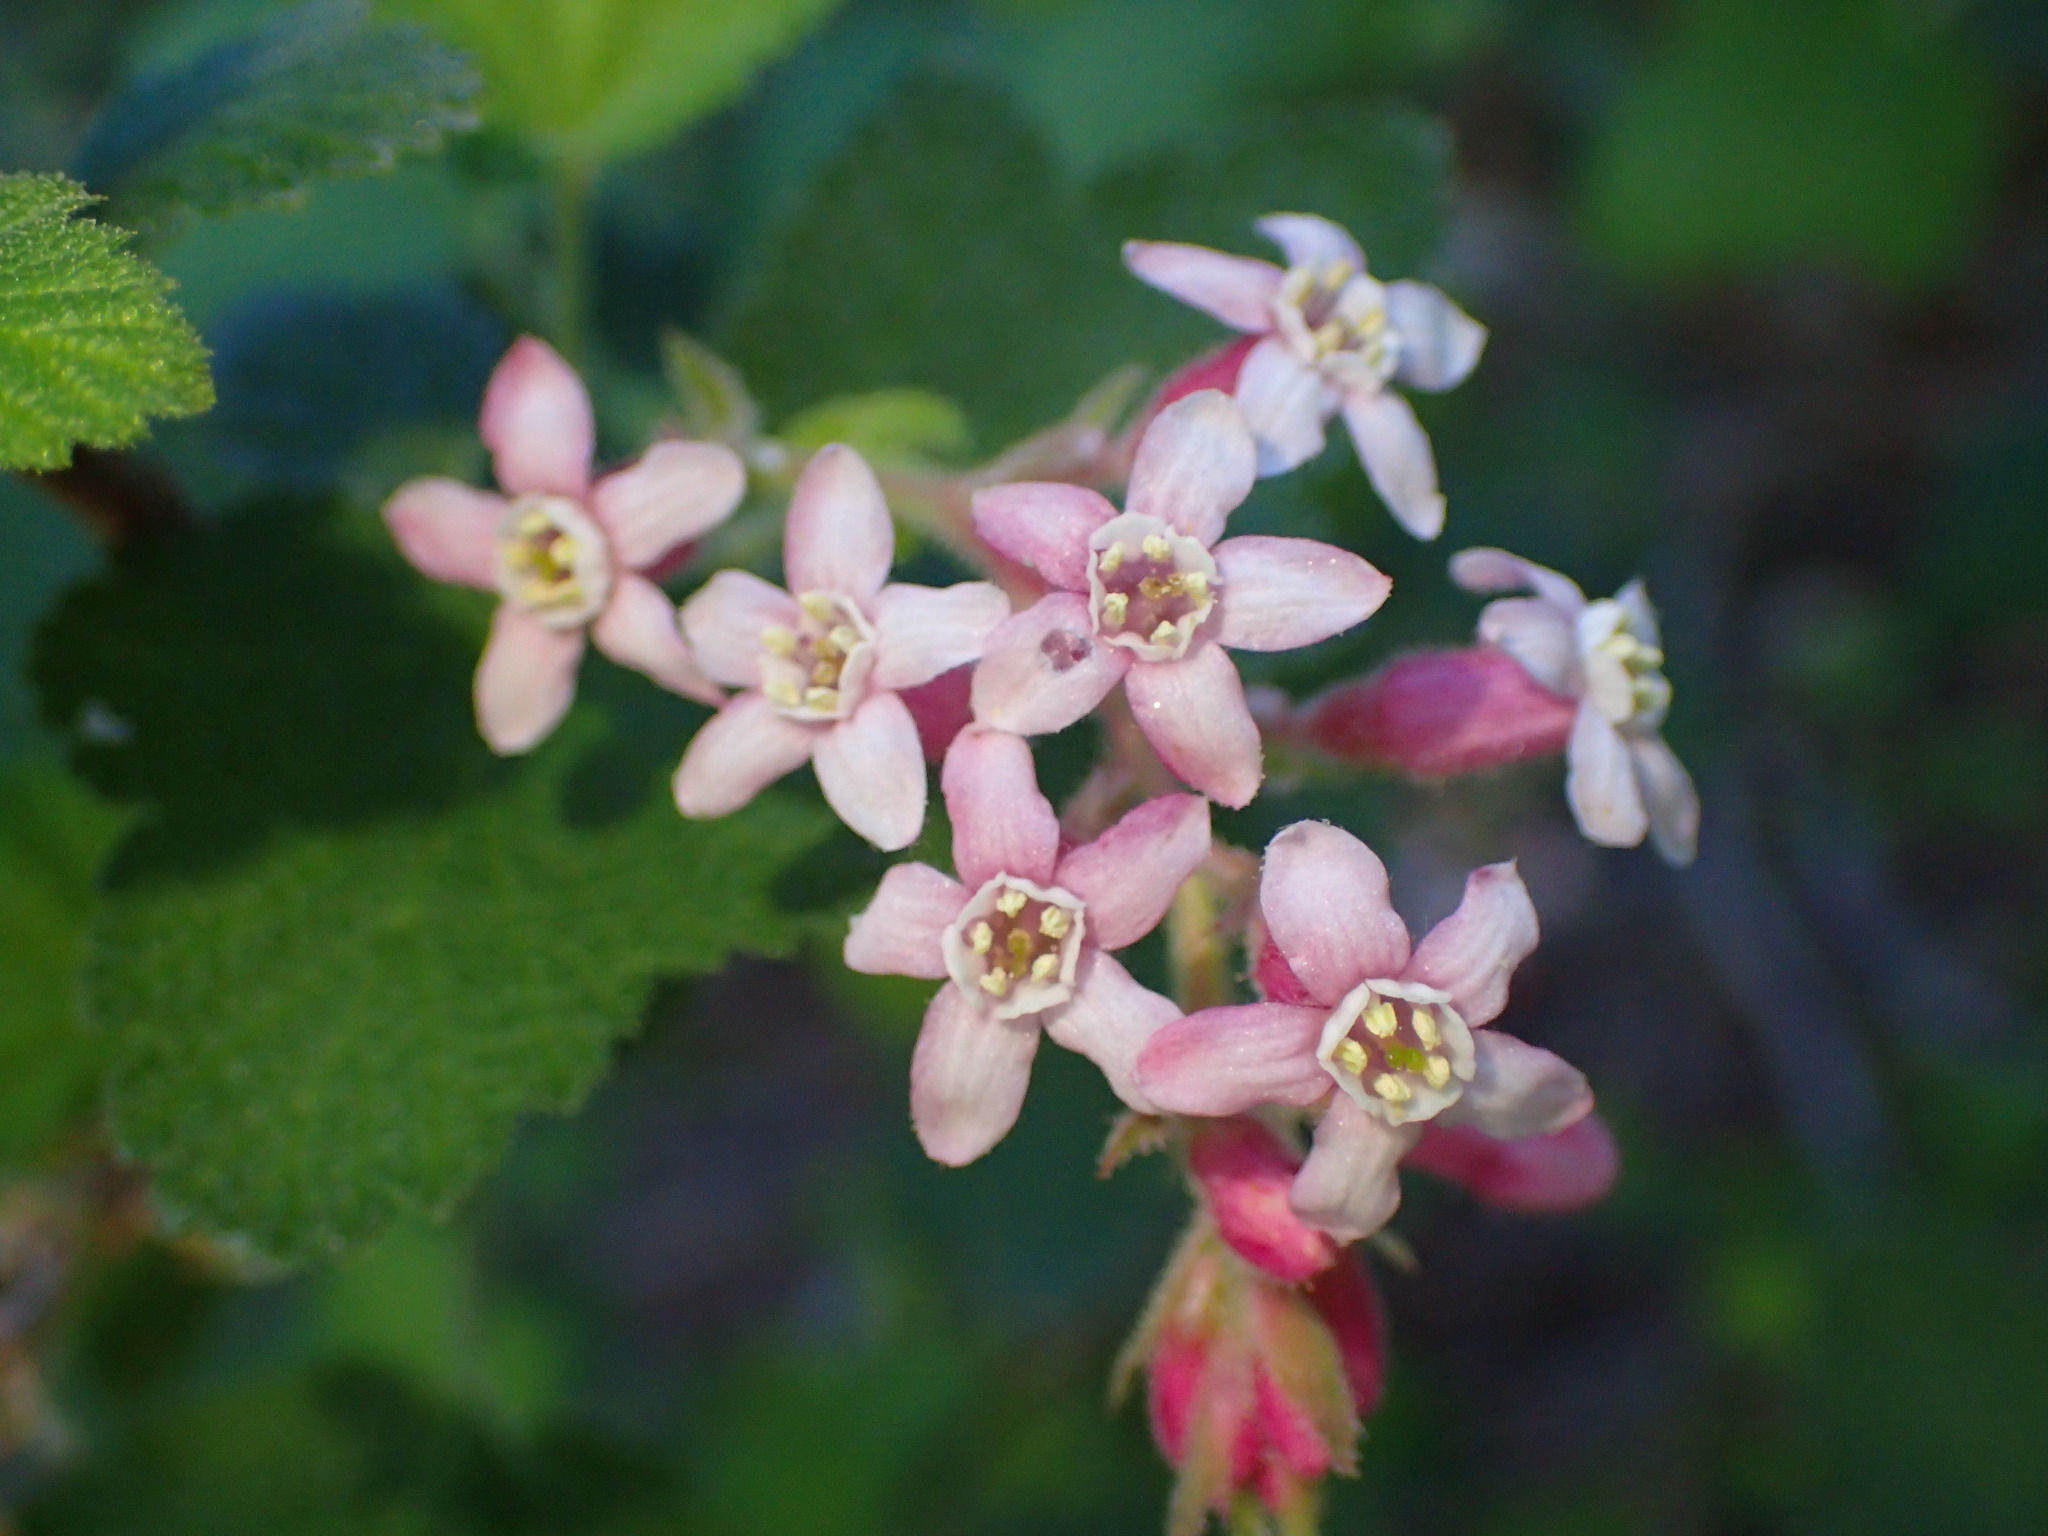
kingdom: Plantae
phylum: Tracheophyta
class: Magnoliopsida
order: Saxifragales
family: Grossulariaceae
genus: Ribes
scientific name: Ribes malvaceum
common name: Chaparral currant
